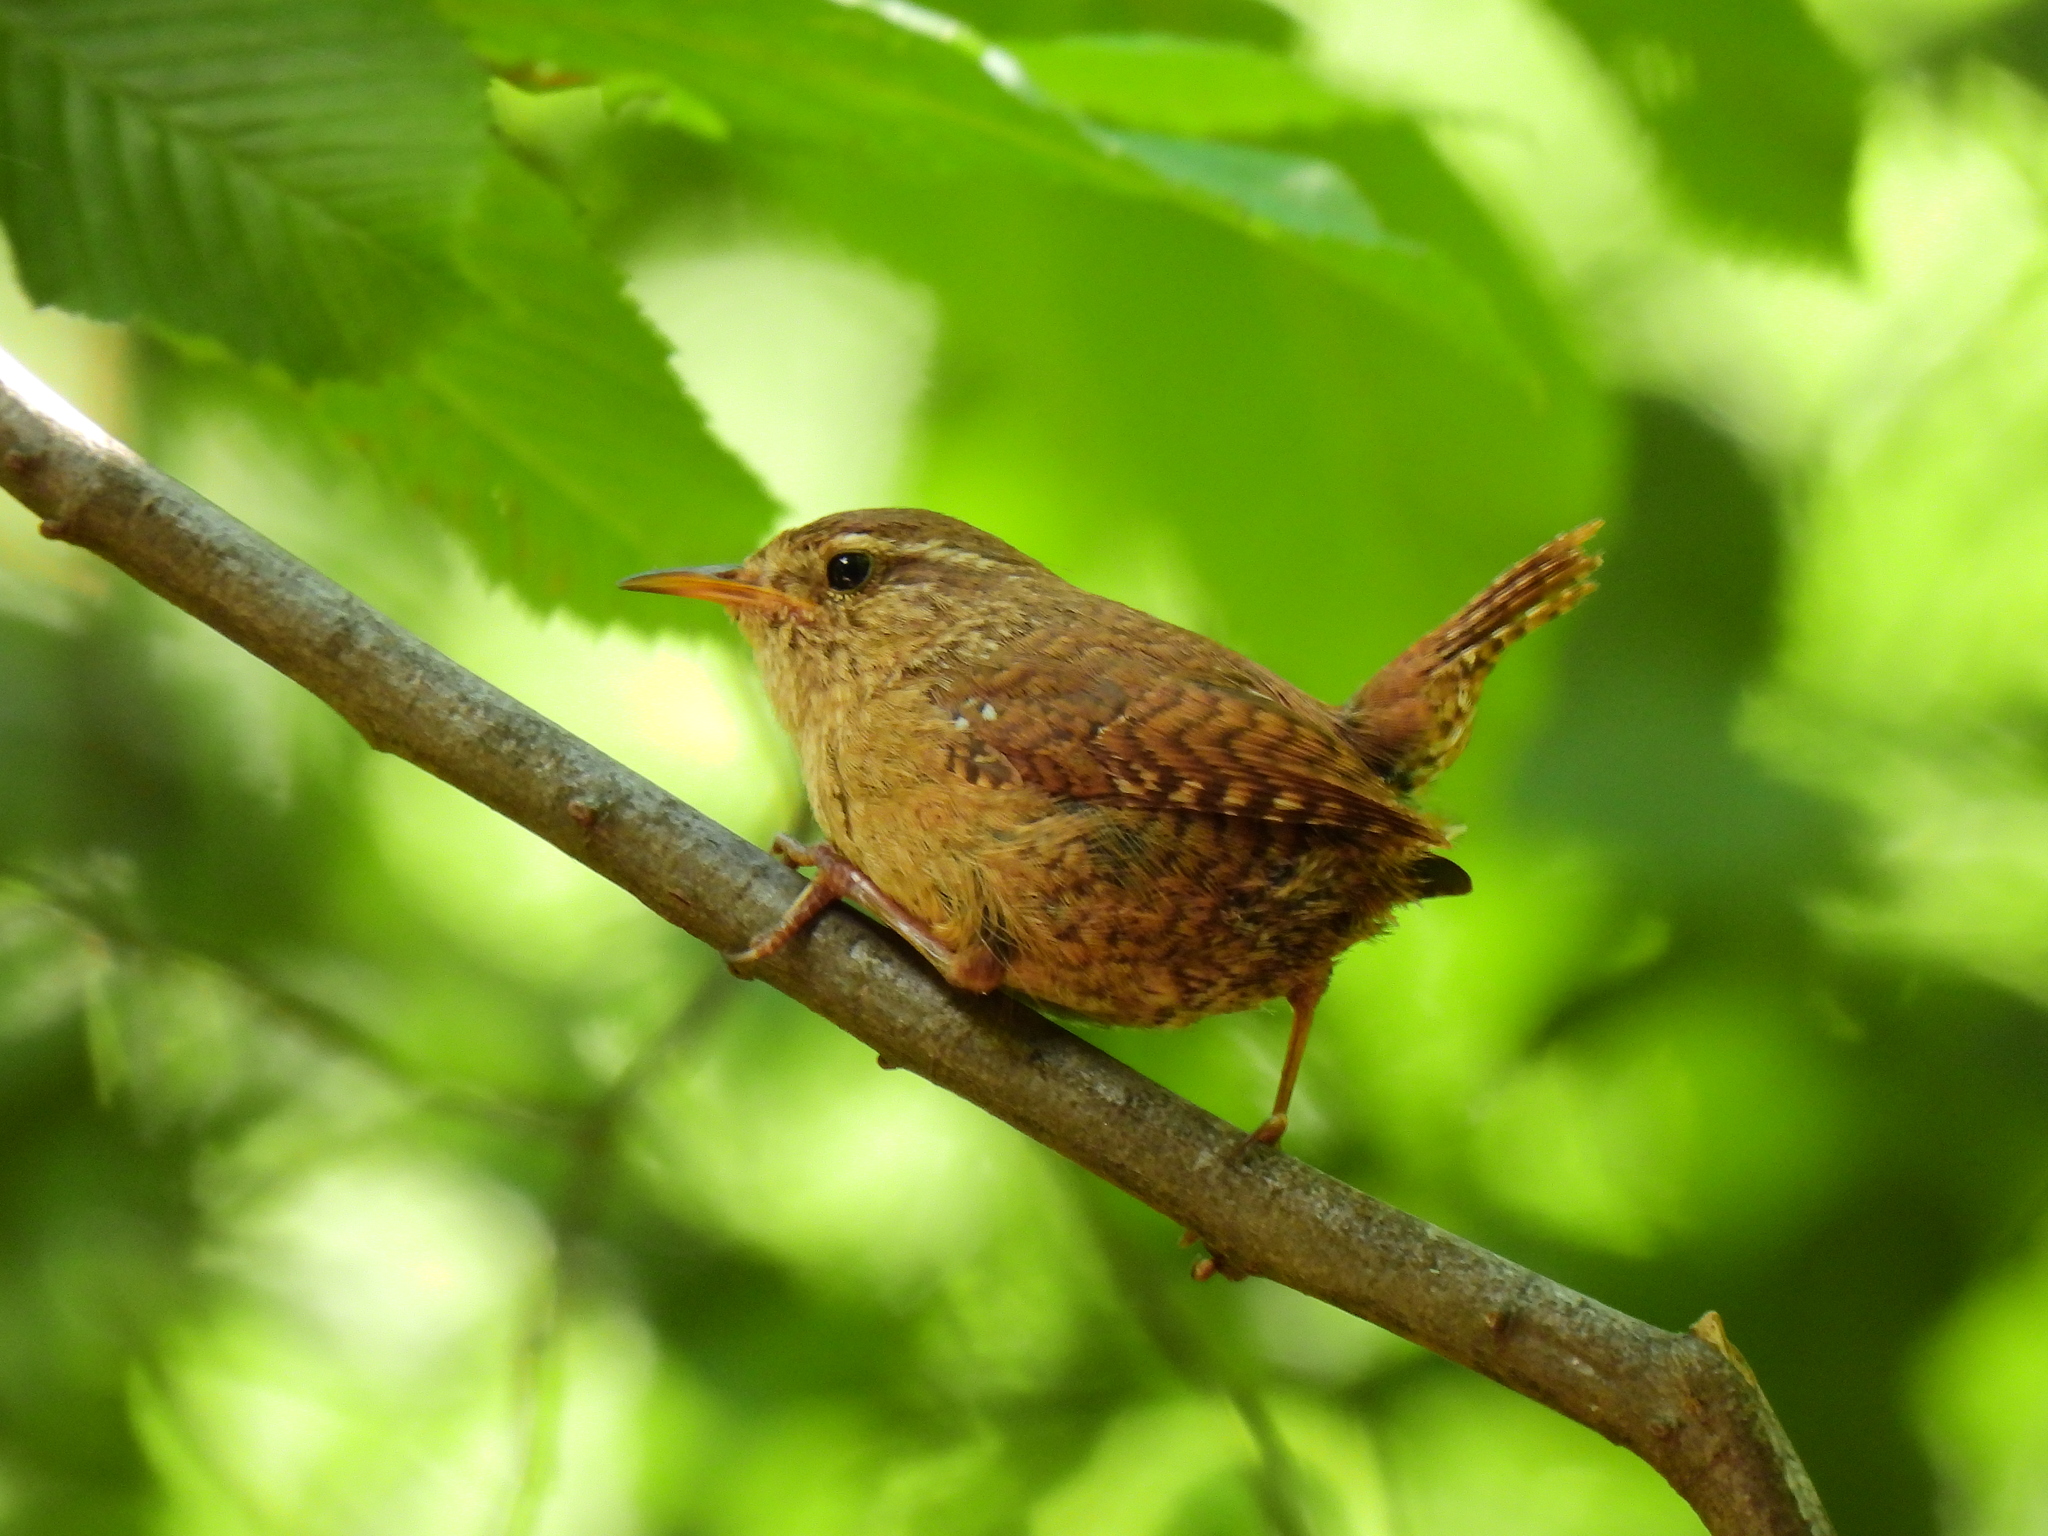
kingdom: Animalia
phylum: Chordata
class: Aves
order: Passeriformes
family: Troglodytidae
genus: Troglodytes
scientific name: Troglodytes troglodytes
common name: Eurasian wren
